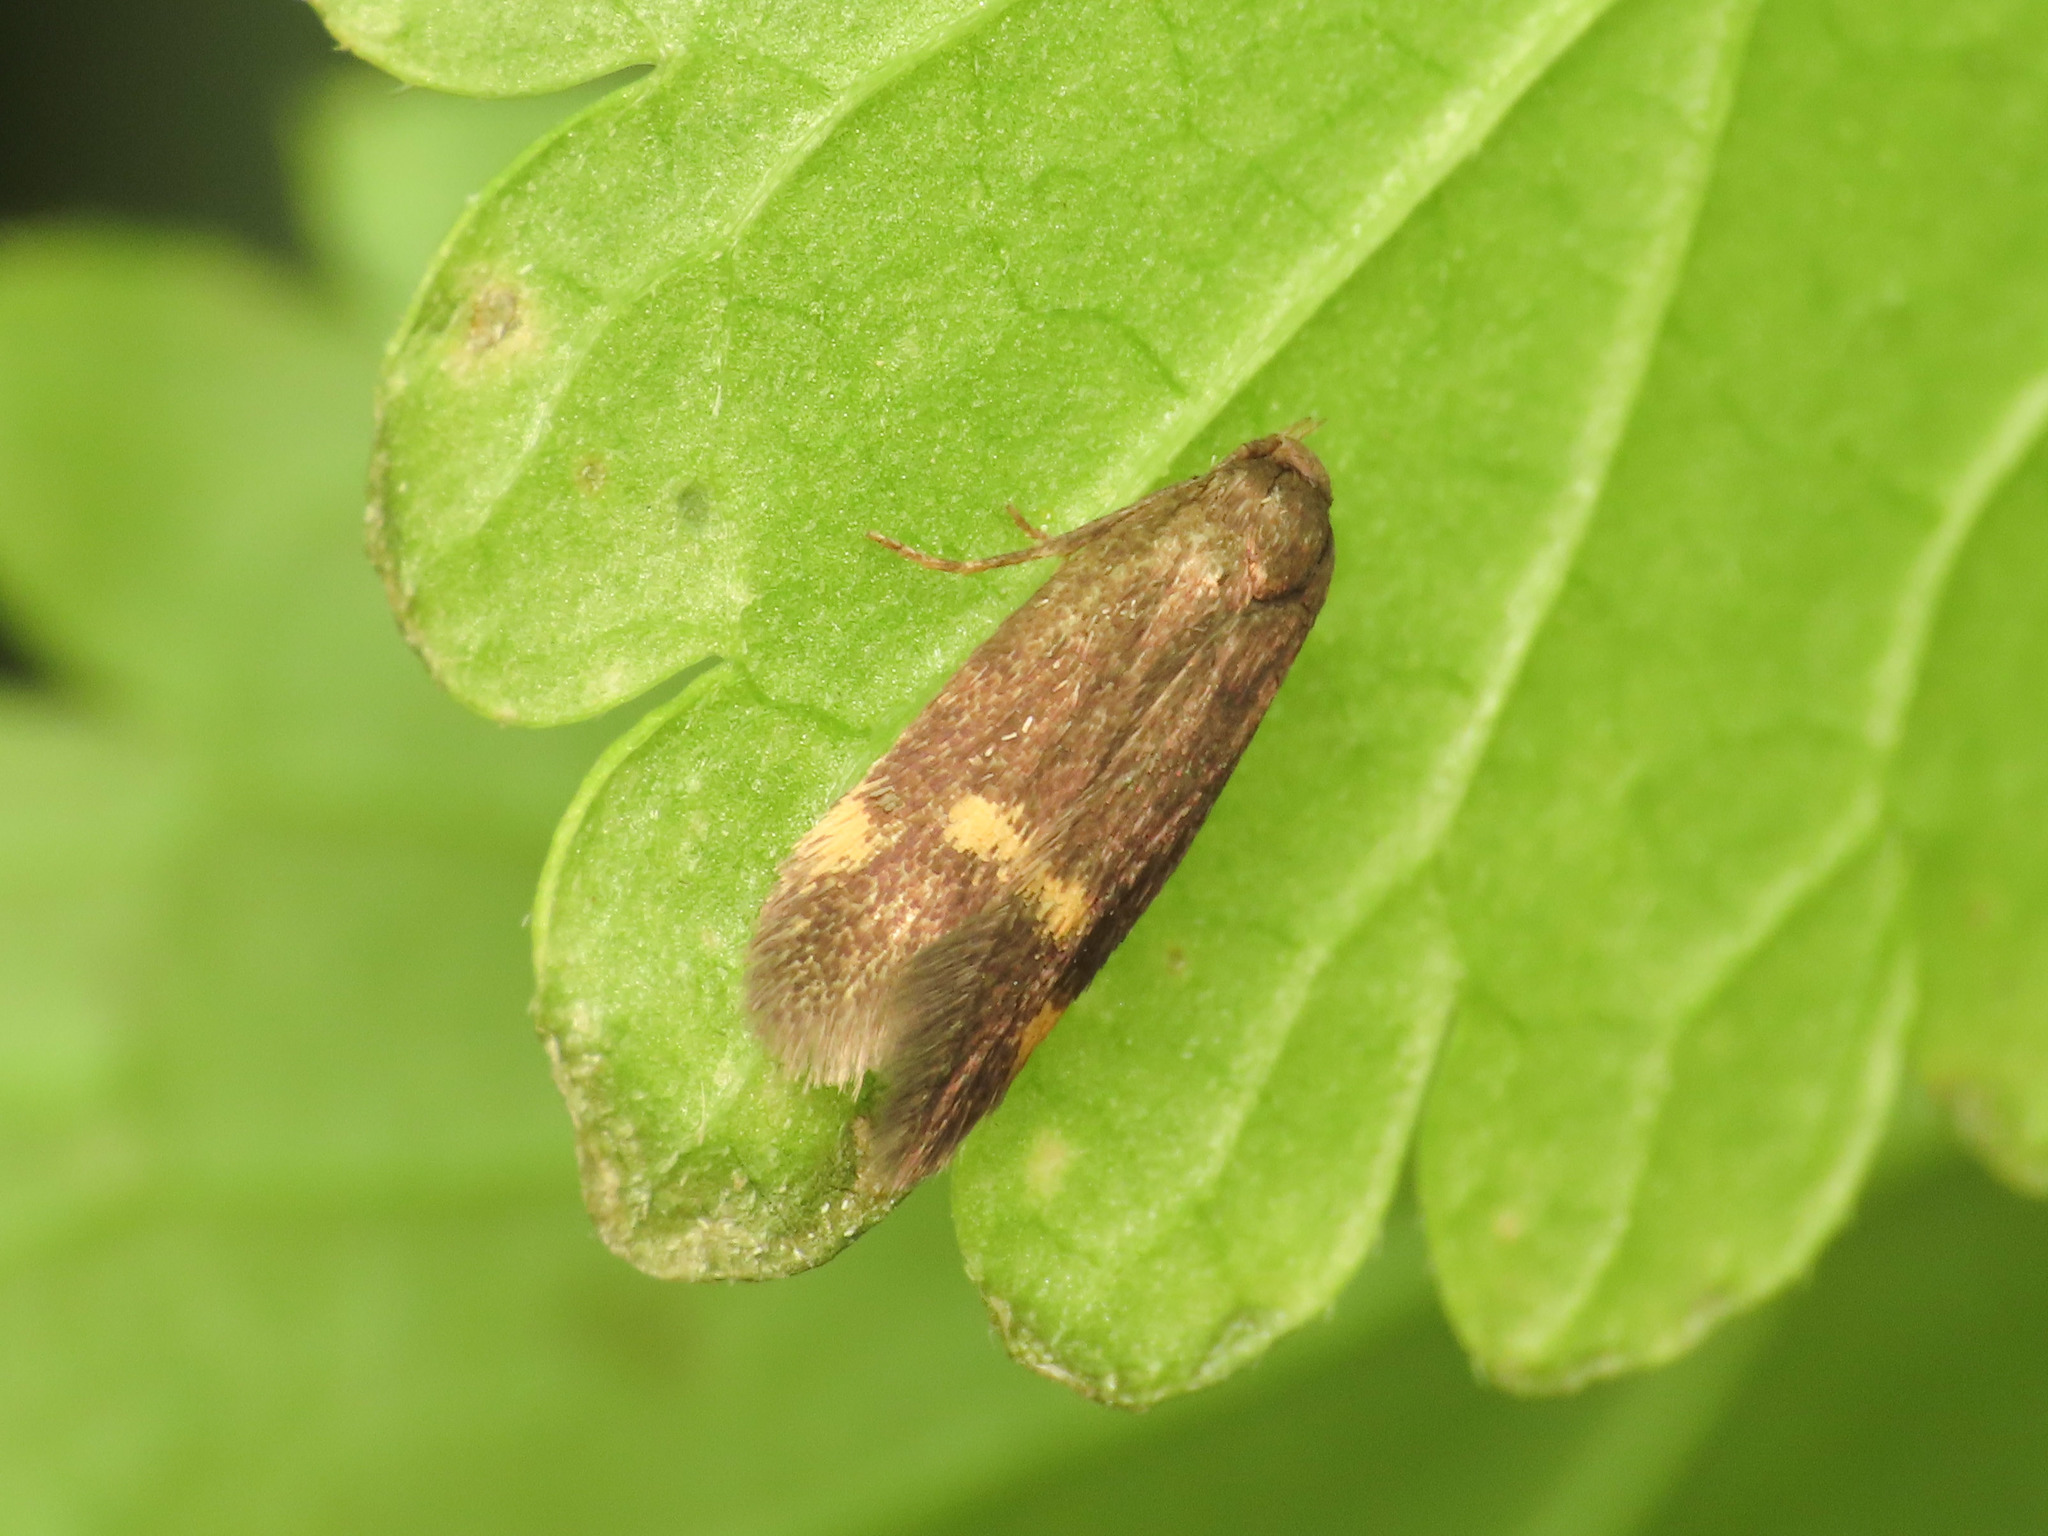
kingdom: Animalia
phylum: Arthropoda
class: Insecta
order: Lepidoptera
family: Oecophoridae
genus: Borkhausenia
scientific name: Borkhausenia minutella
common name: Thatch tubic
